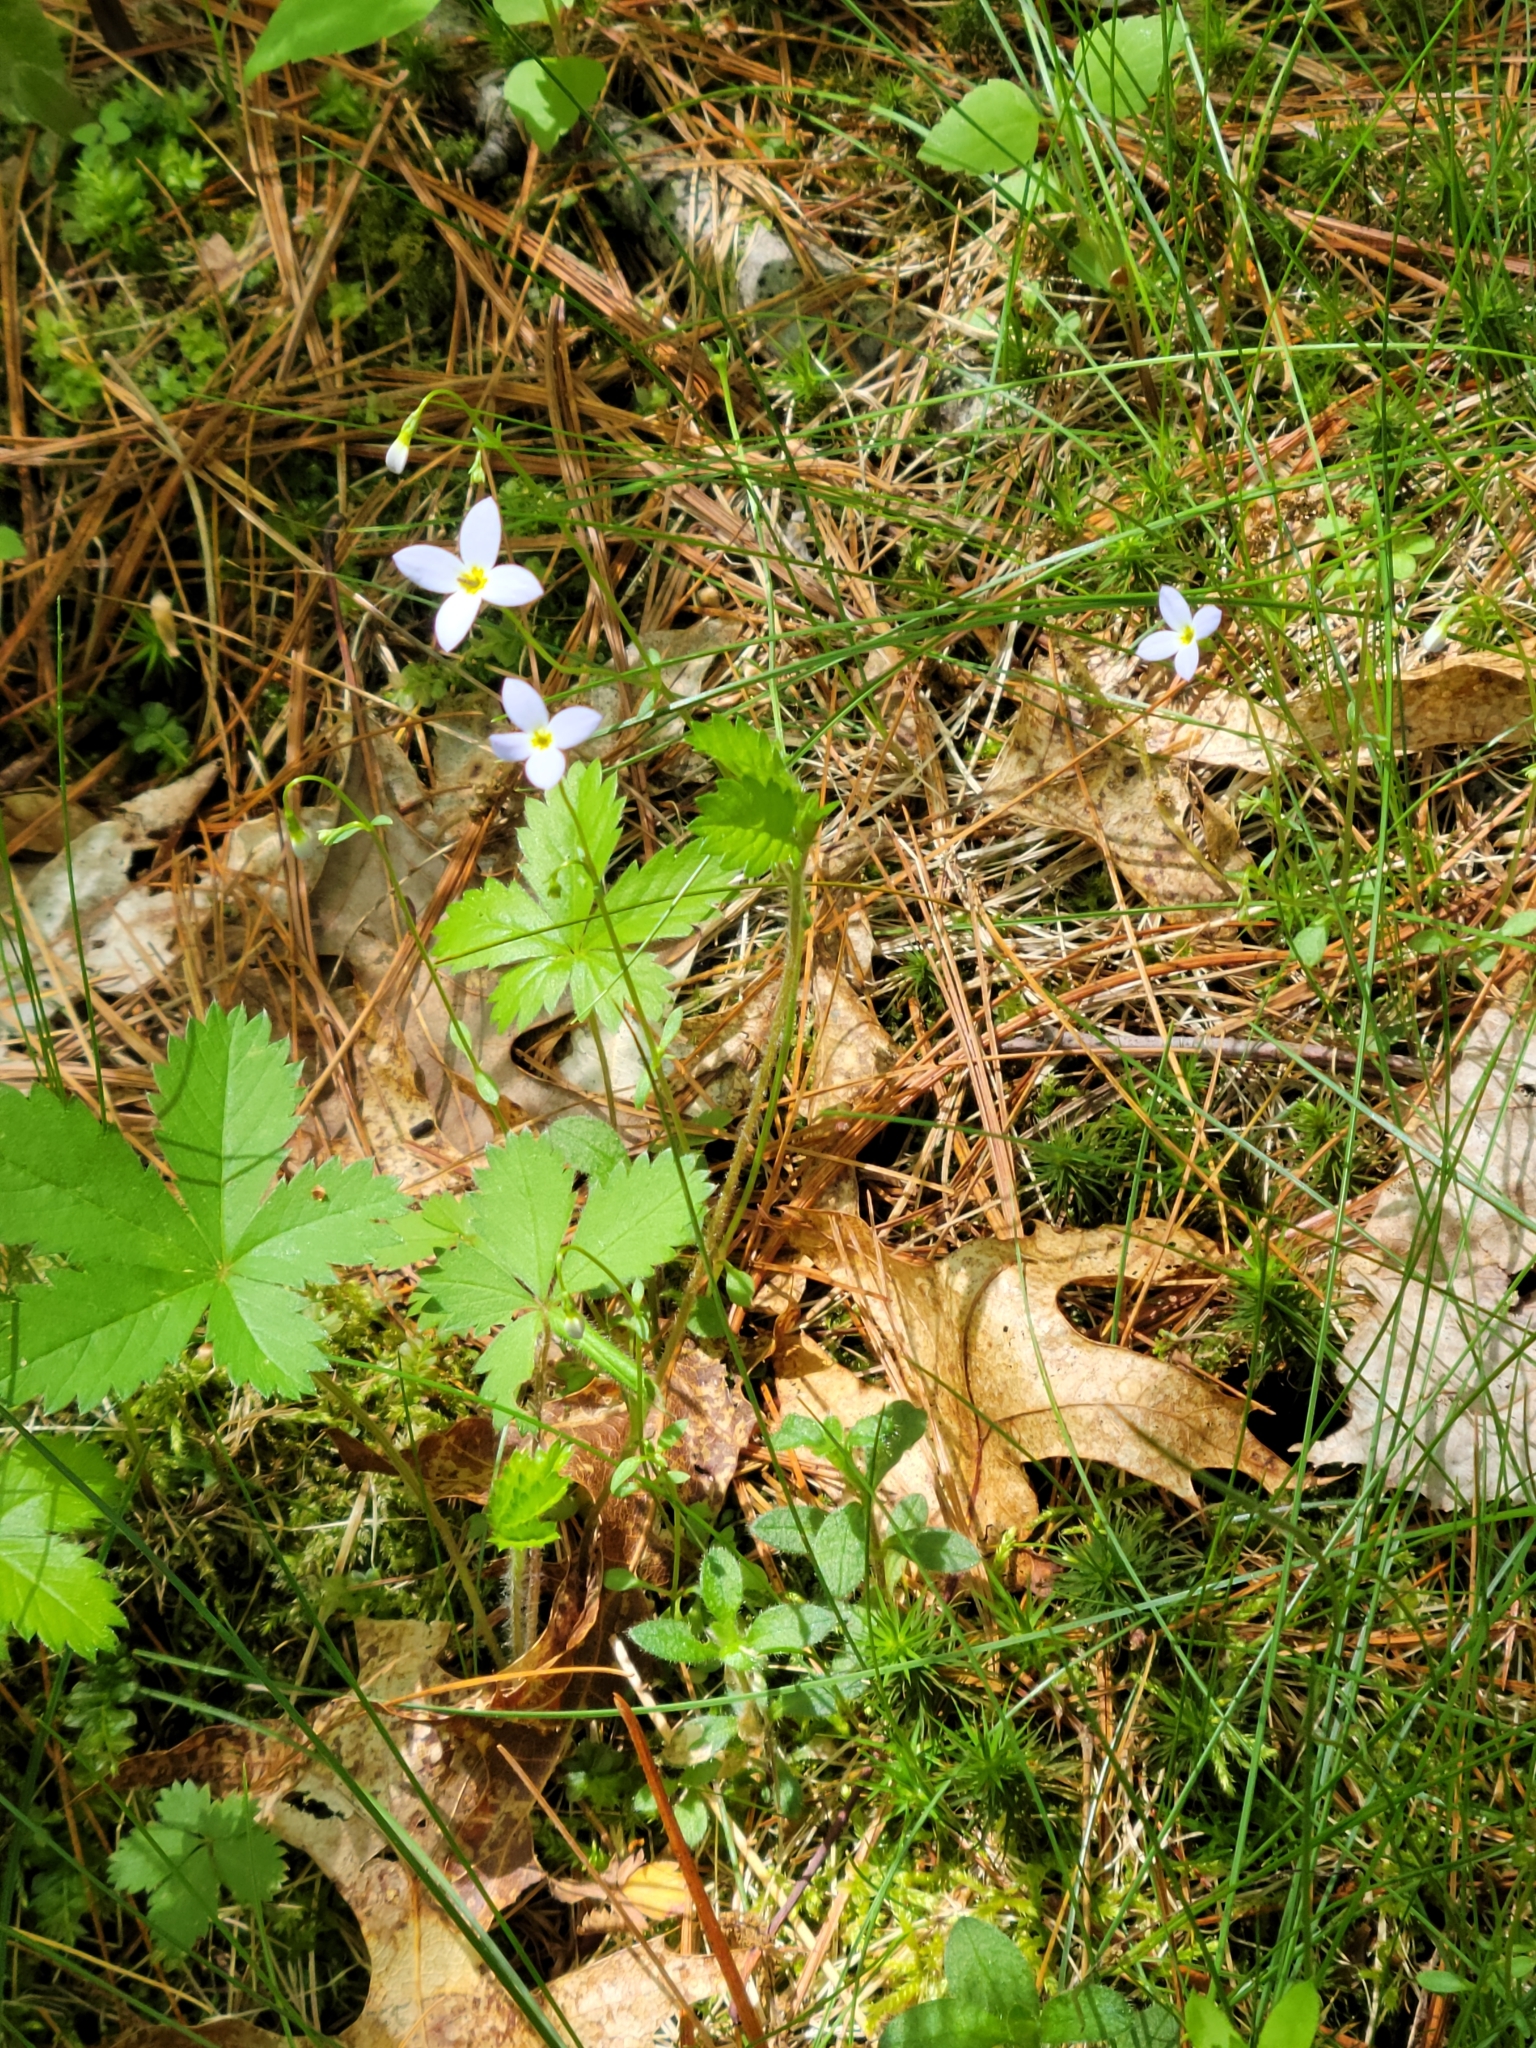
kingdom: Plantae
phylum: Tracheophyta
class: Magnoliopsida
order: Gentianales
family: Rubiaceae
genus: Houstonia
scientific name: Houstonia caerulea
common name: Bluets
